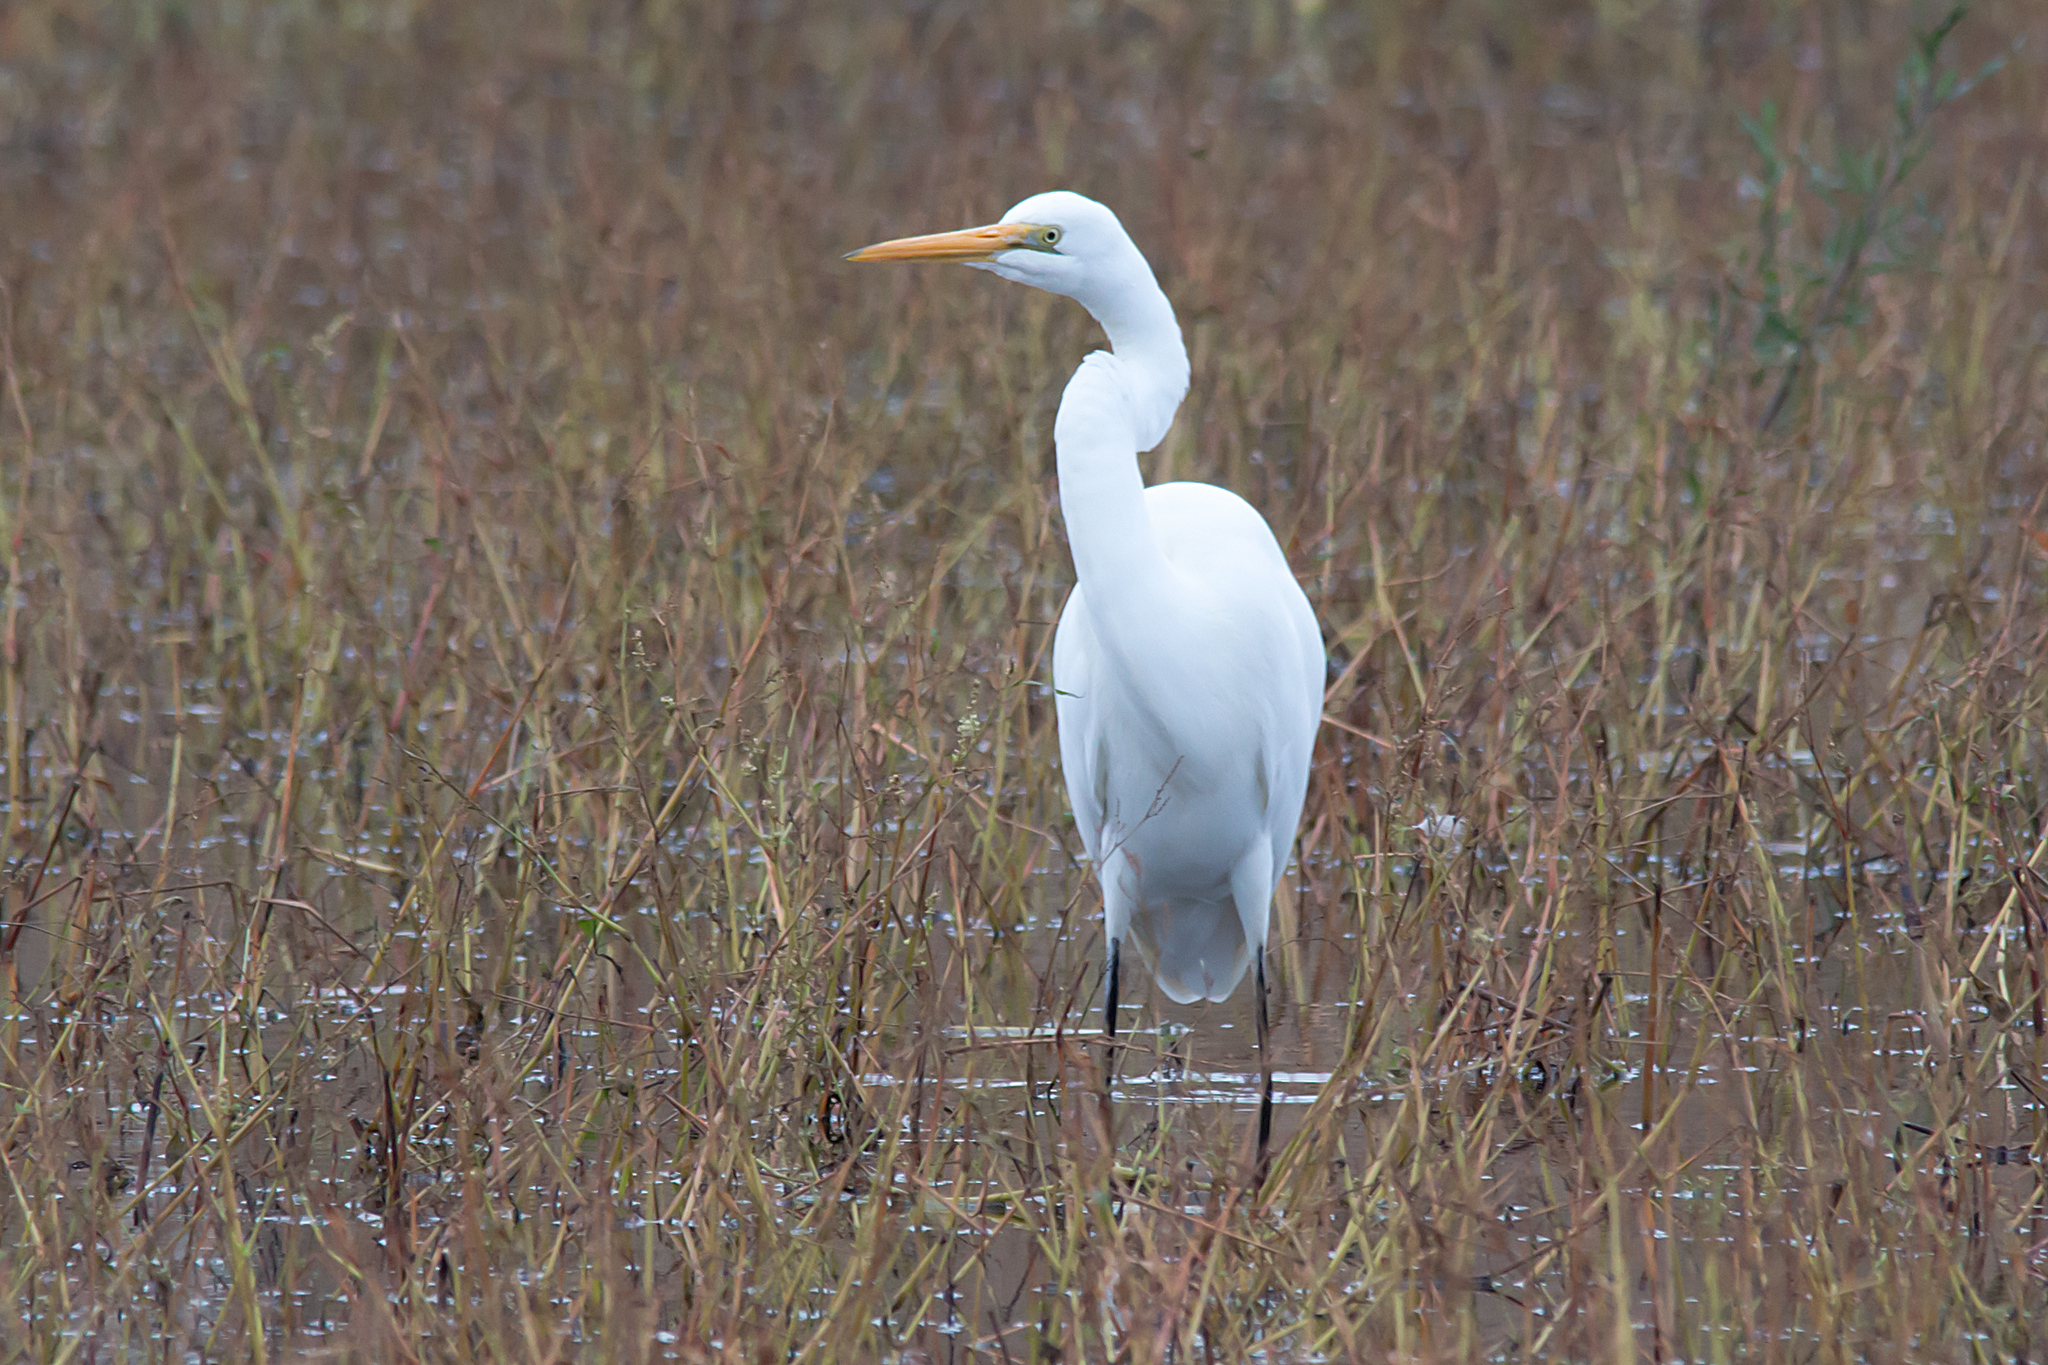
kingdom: Animalia
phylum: Chordata
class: Aves
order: Pelecaniformes
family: Ardeidae
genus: Ardea
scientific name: Ardea alba
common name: Great egret
